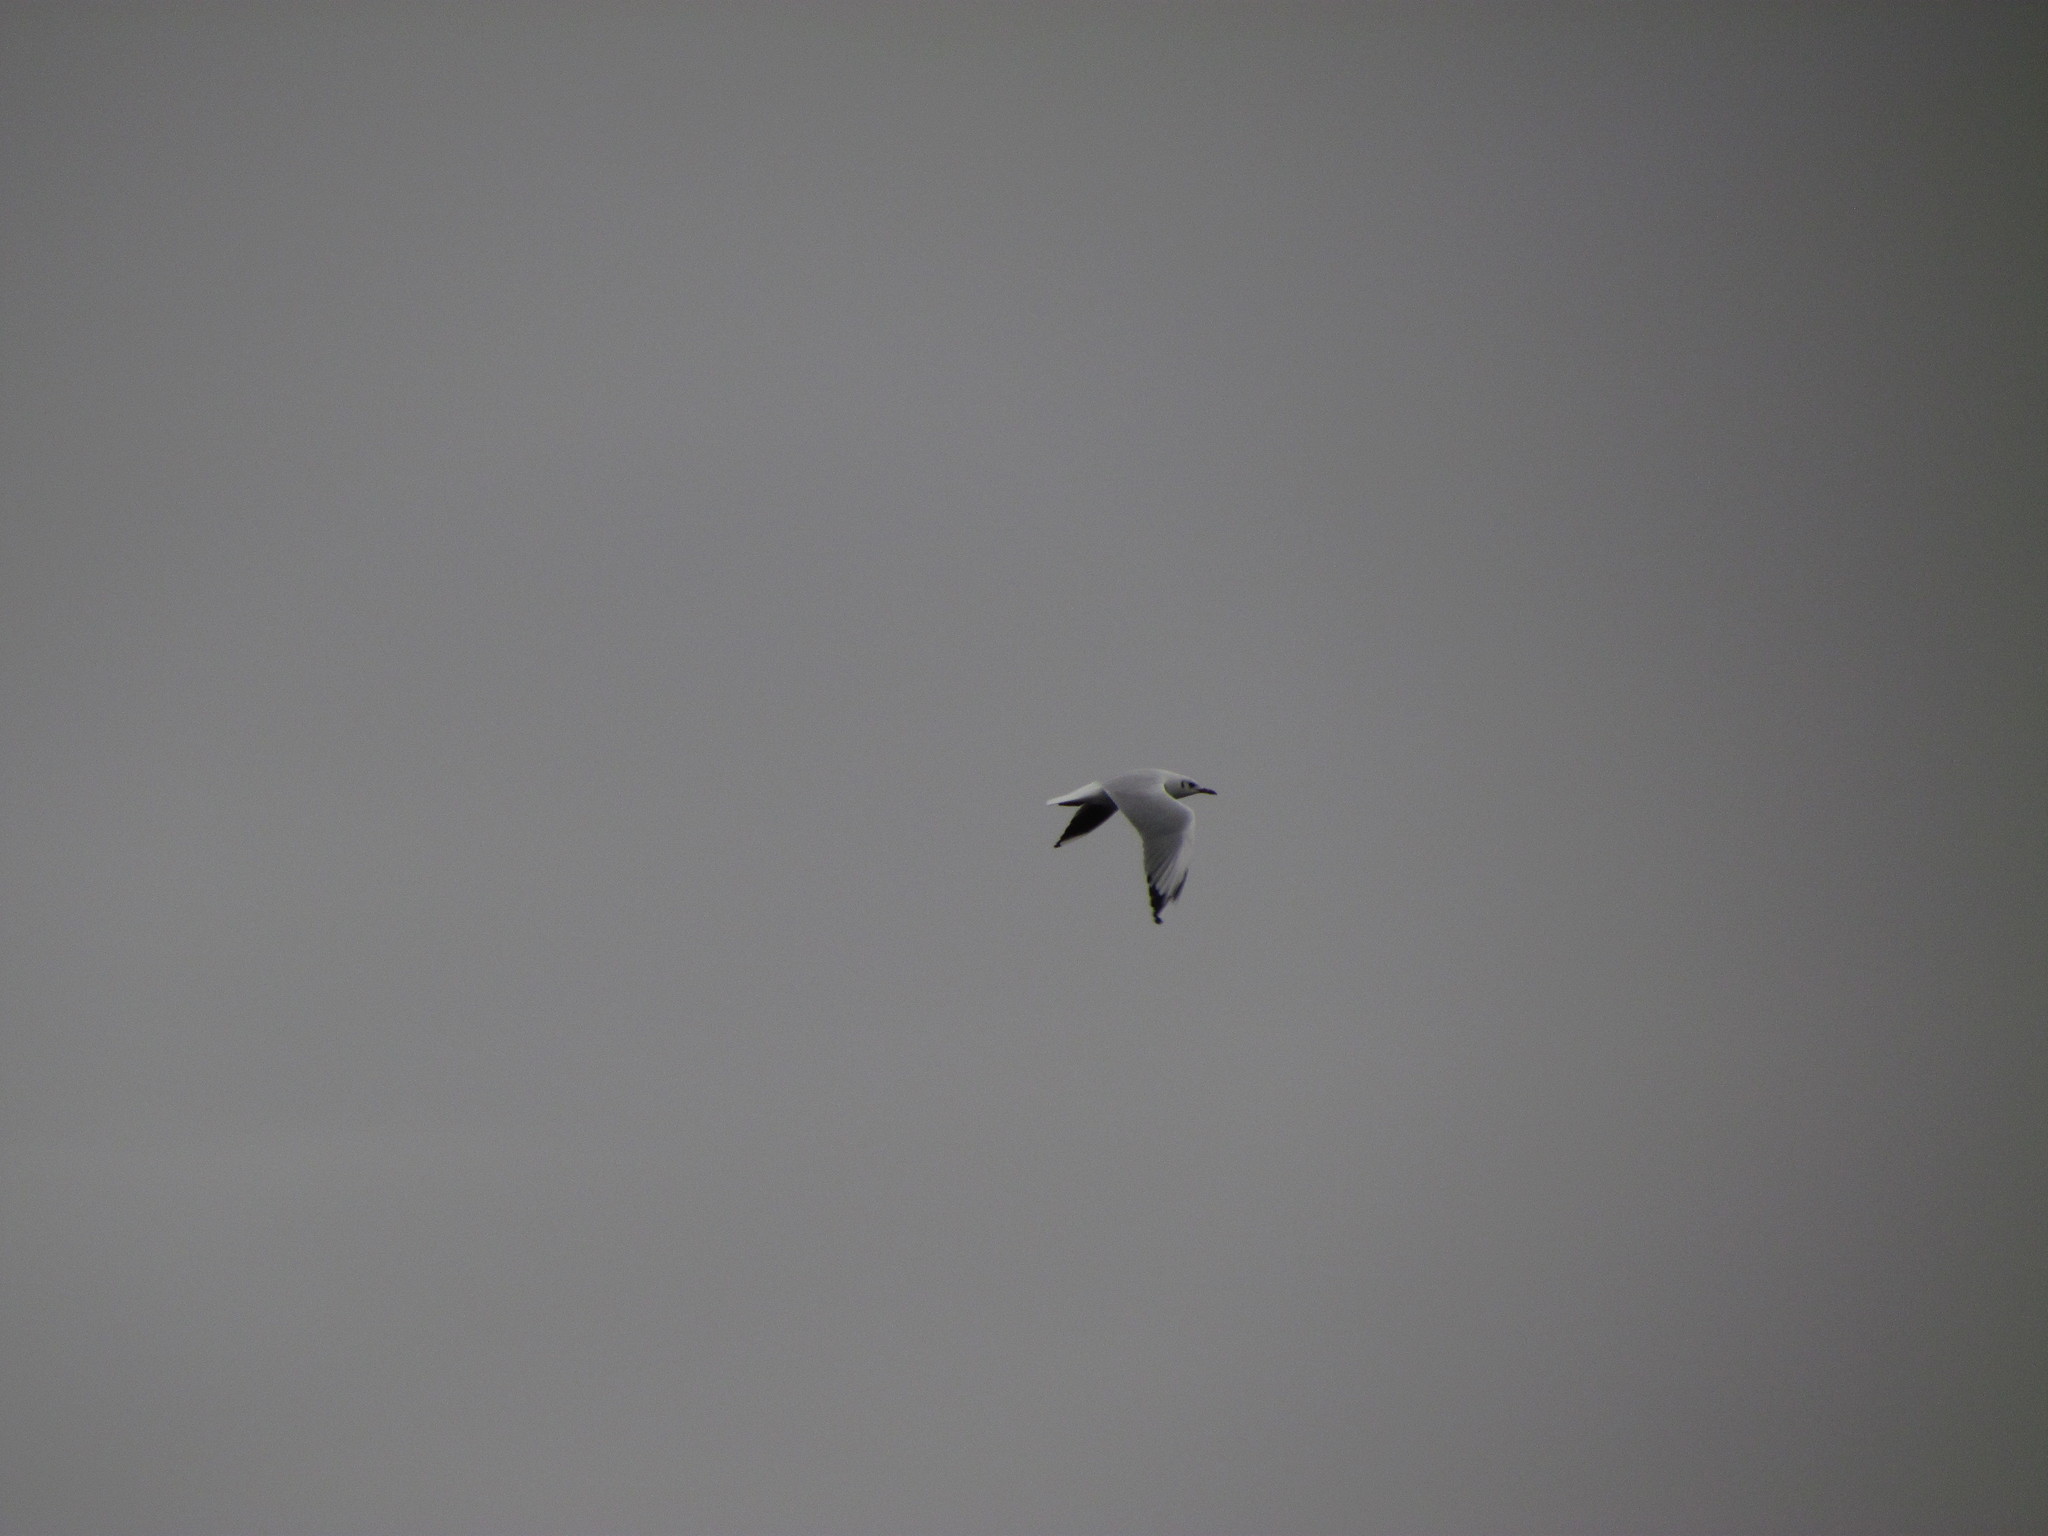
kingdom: Animalia
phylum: Chordata
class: Aves
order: Charadriiformes
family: Laridae
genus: Chroicocephalus
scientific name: Chroicocephalus maculipennis
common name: Brown-hooded gull
